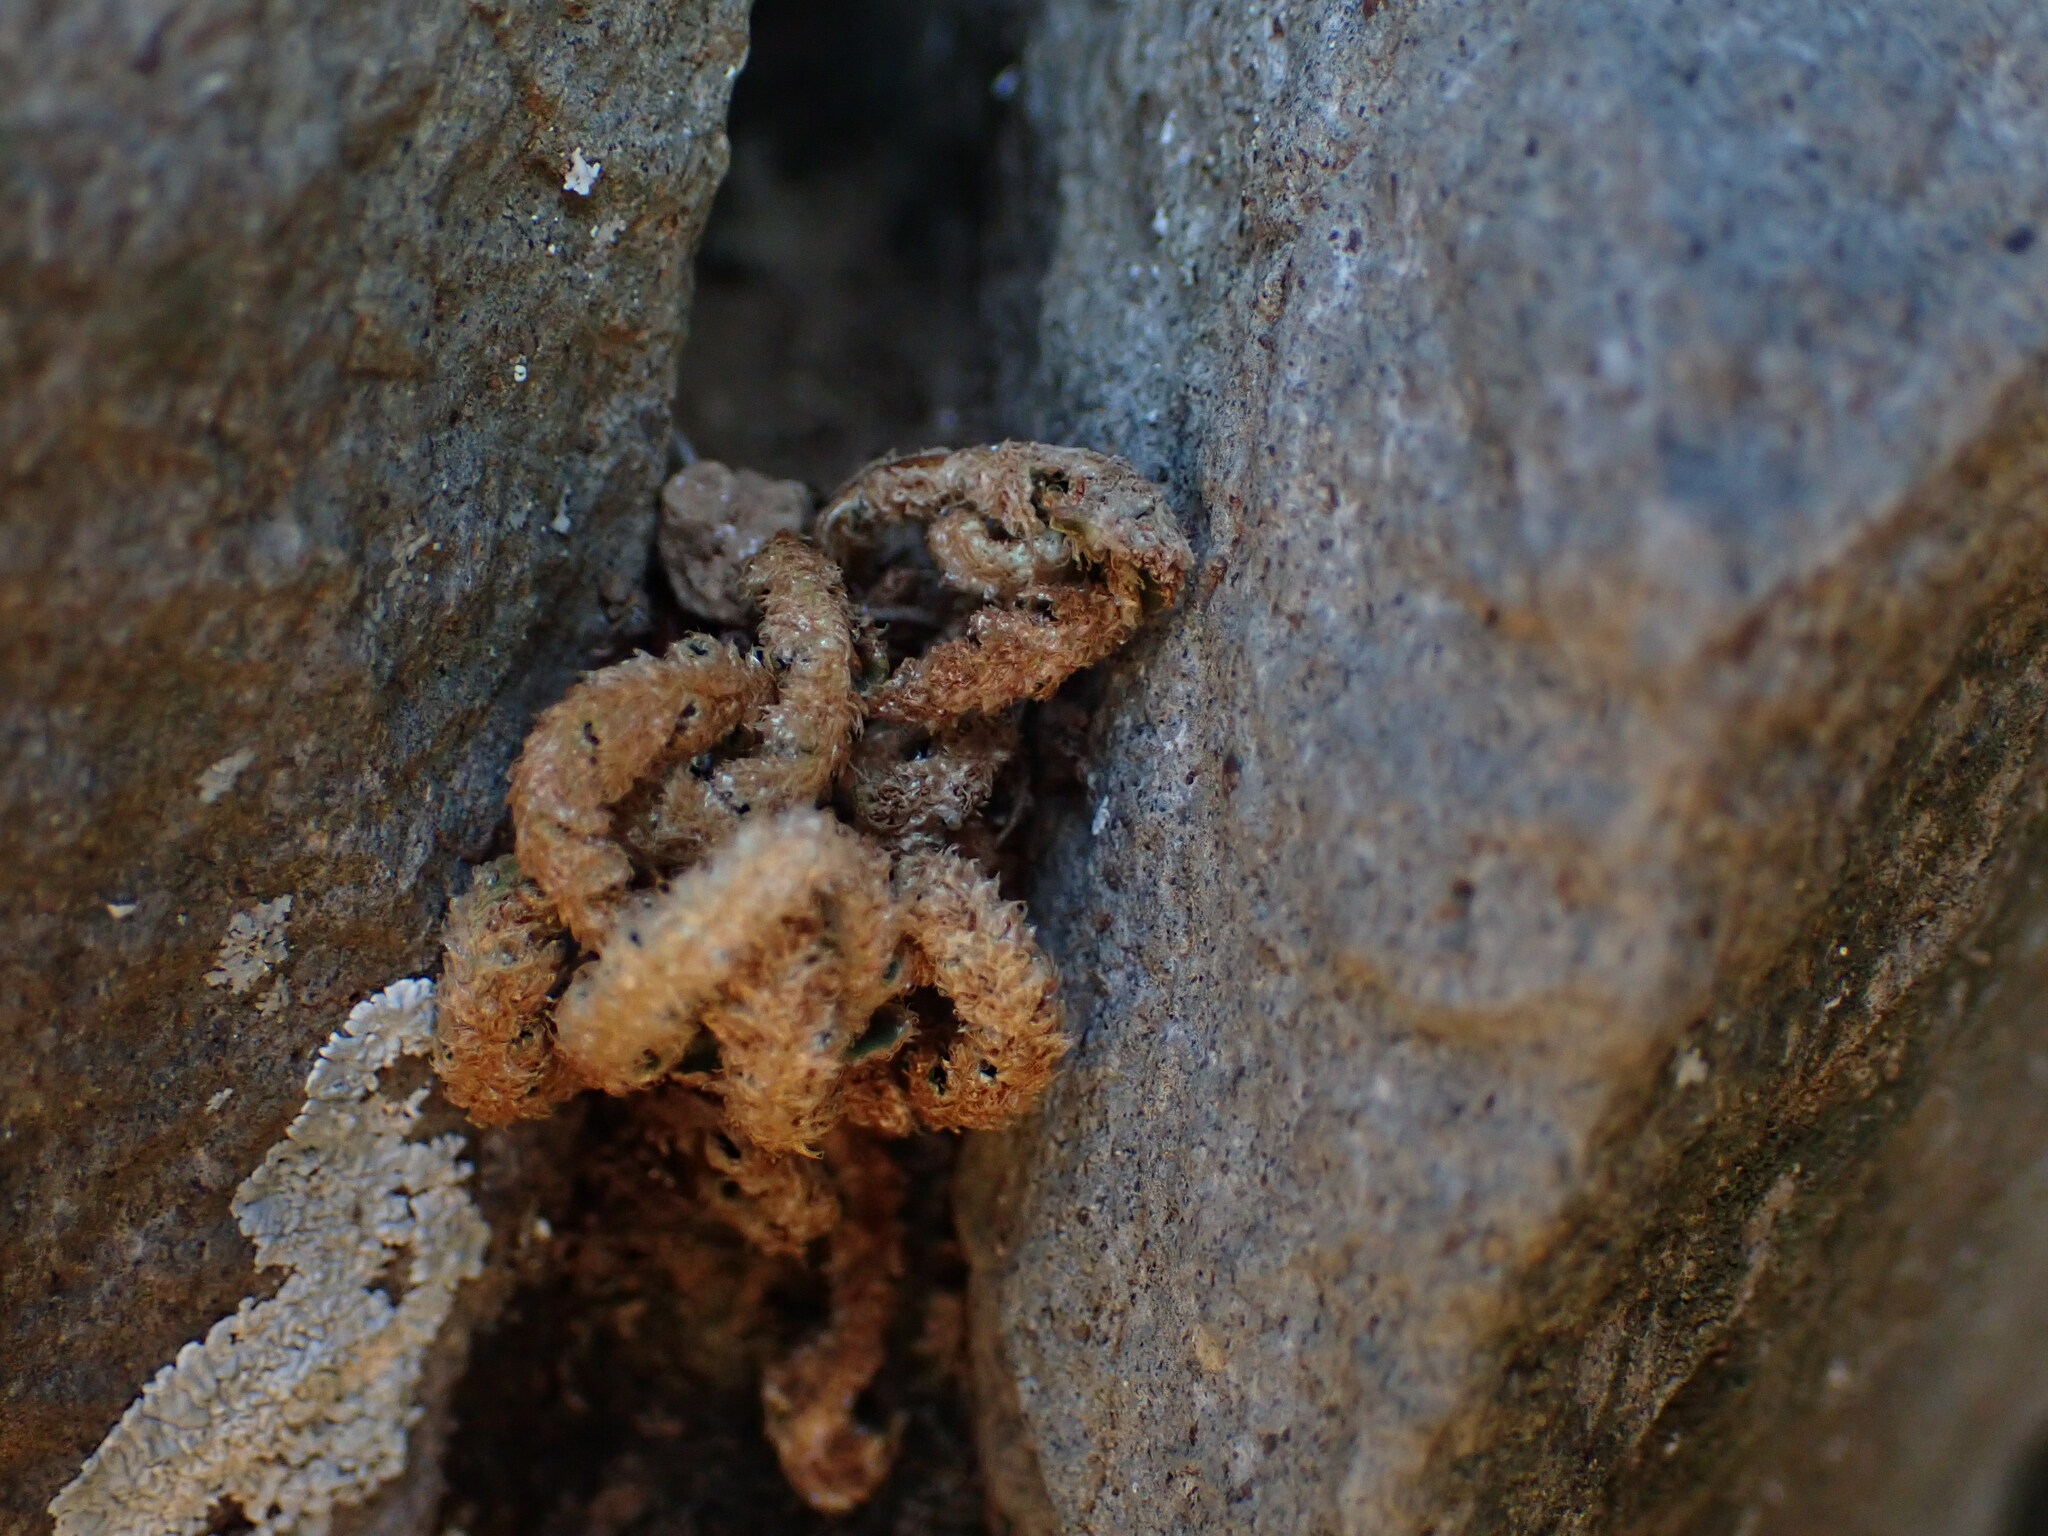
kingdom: Plantae
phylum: Tracheophyta
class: Polypodiopsida
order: Polypodiales
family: Aspleniaceae
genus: Asplenium
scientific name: Asplenium ceterach
